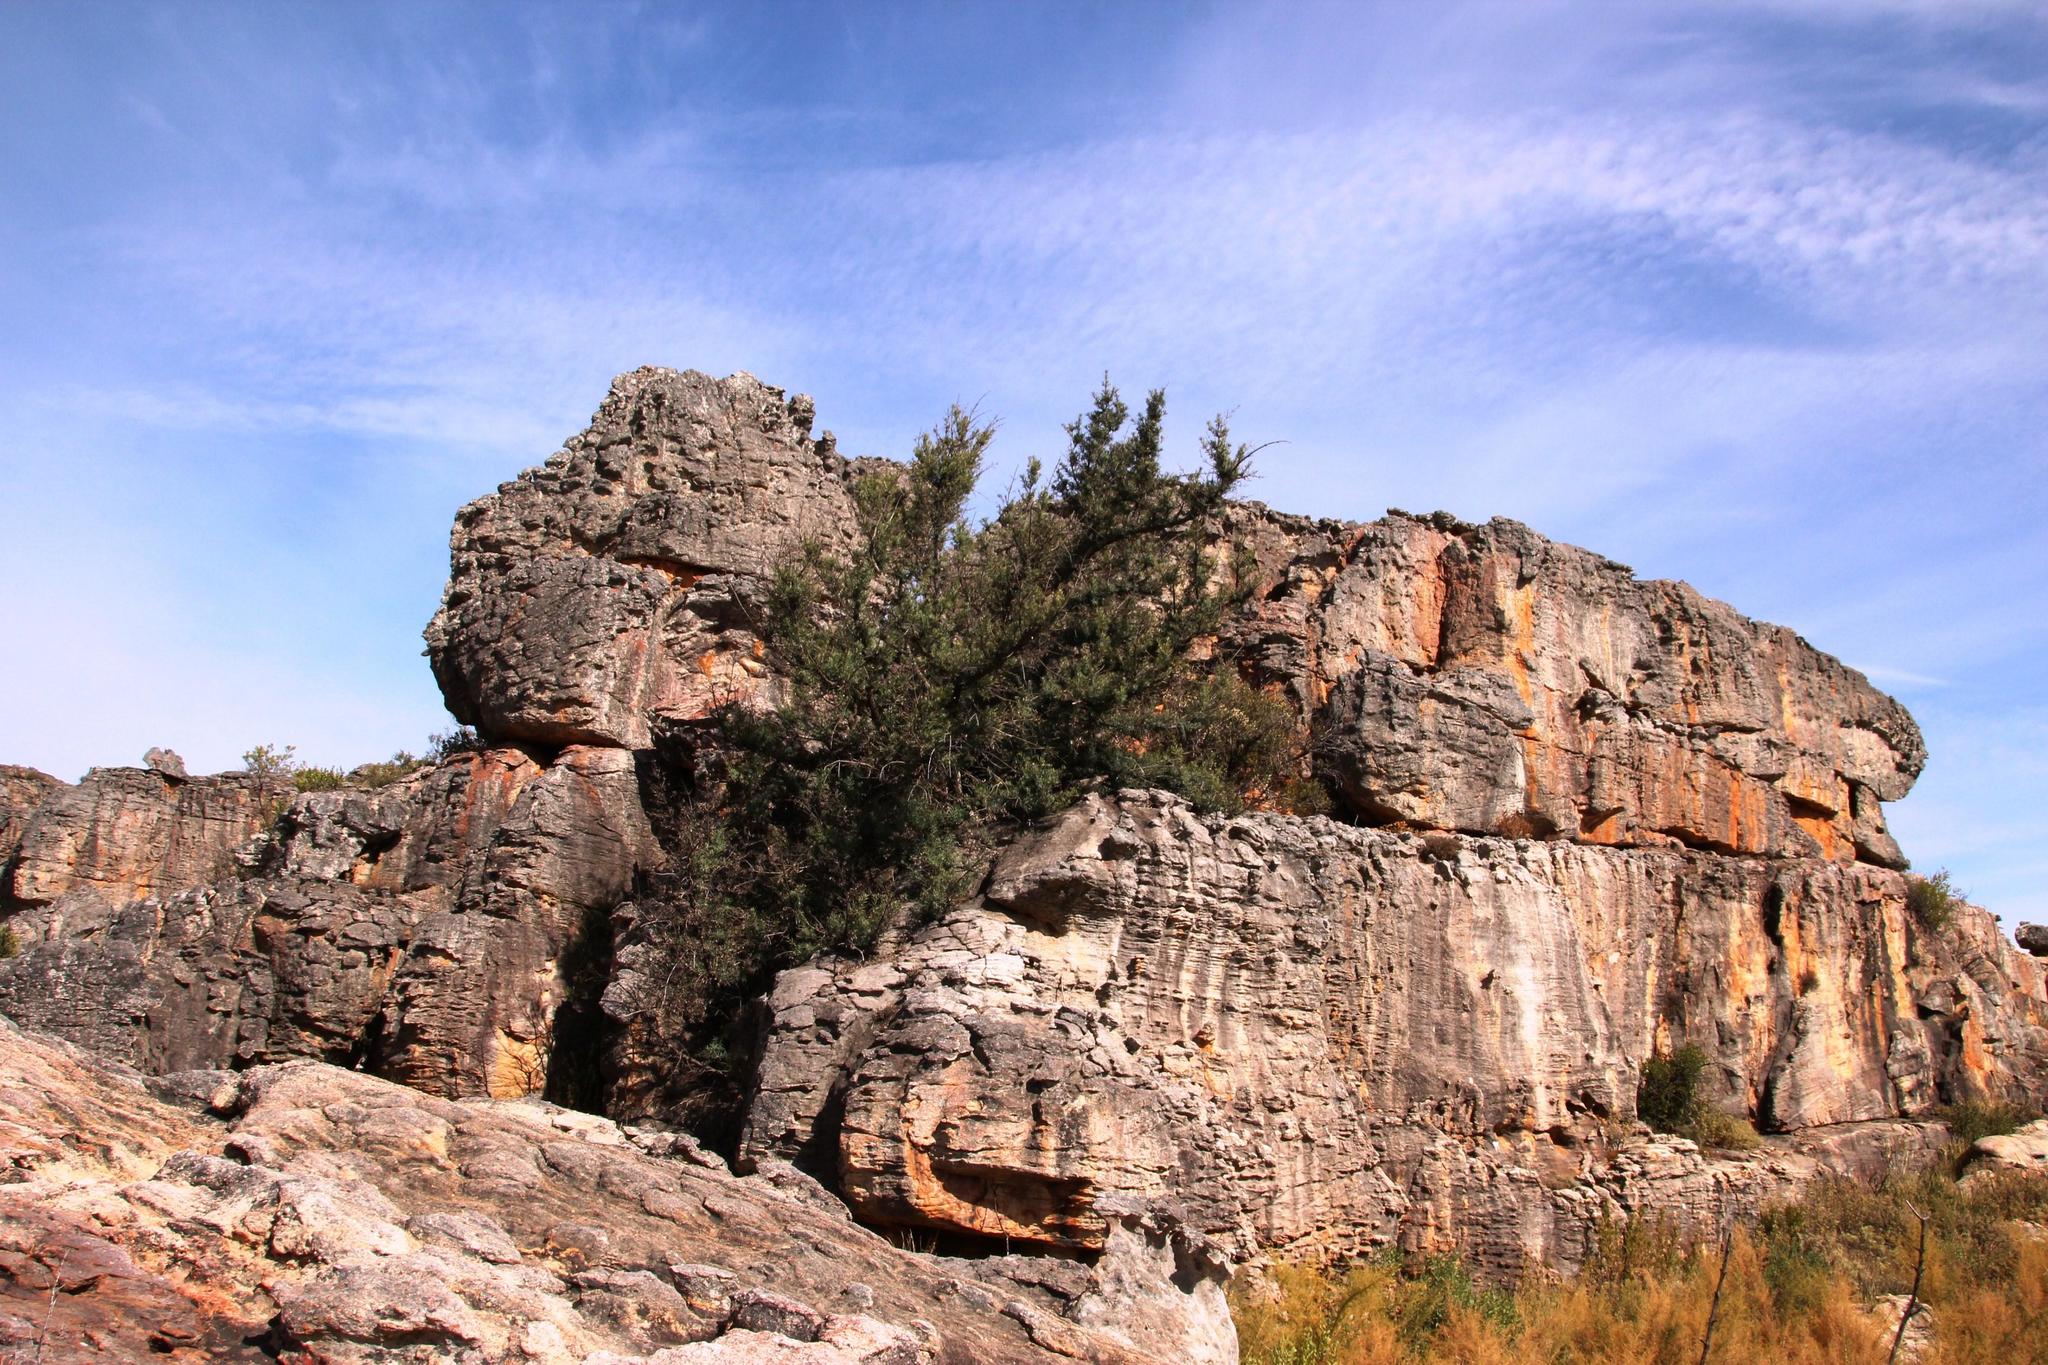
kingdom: Plantae
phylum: Tracheophyta
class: Pinopsida
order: Pinales
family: Podocarpaceae
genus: Podocarpus
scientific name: Podocarpus elongatus
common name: Breede river yellowwood
